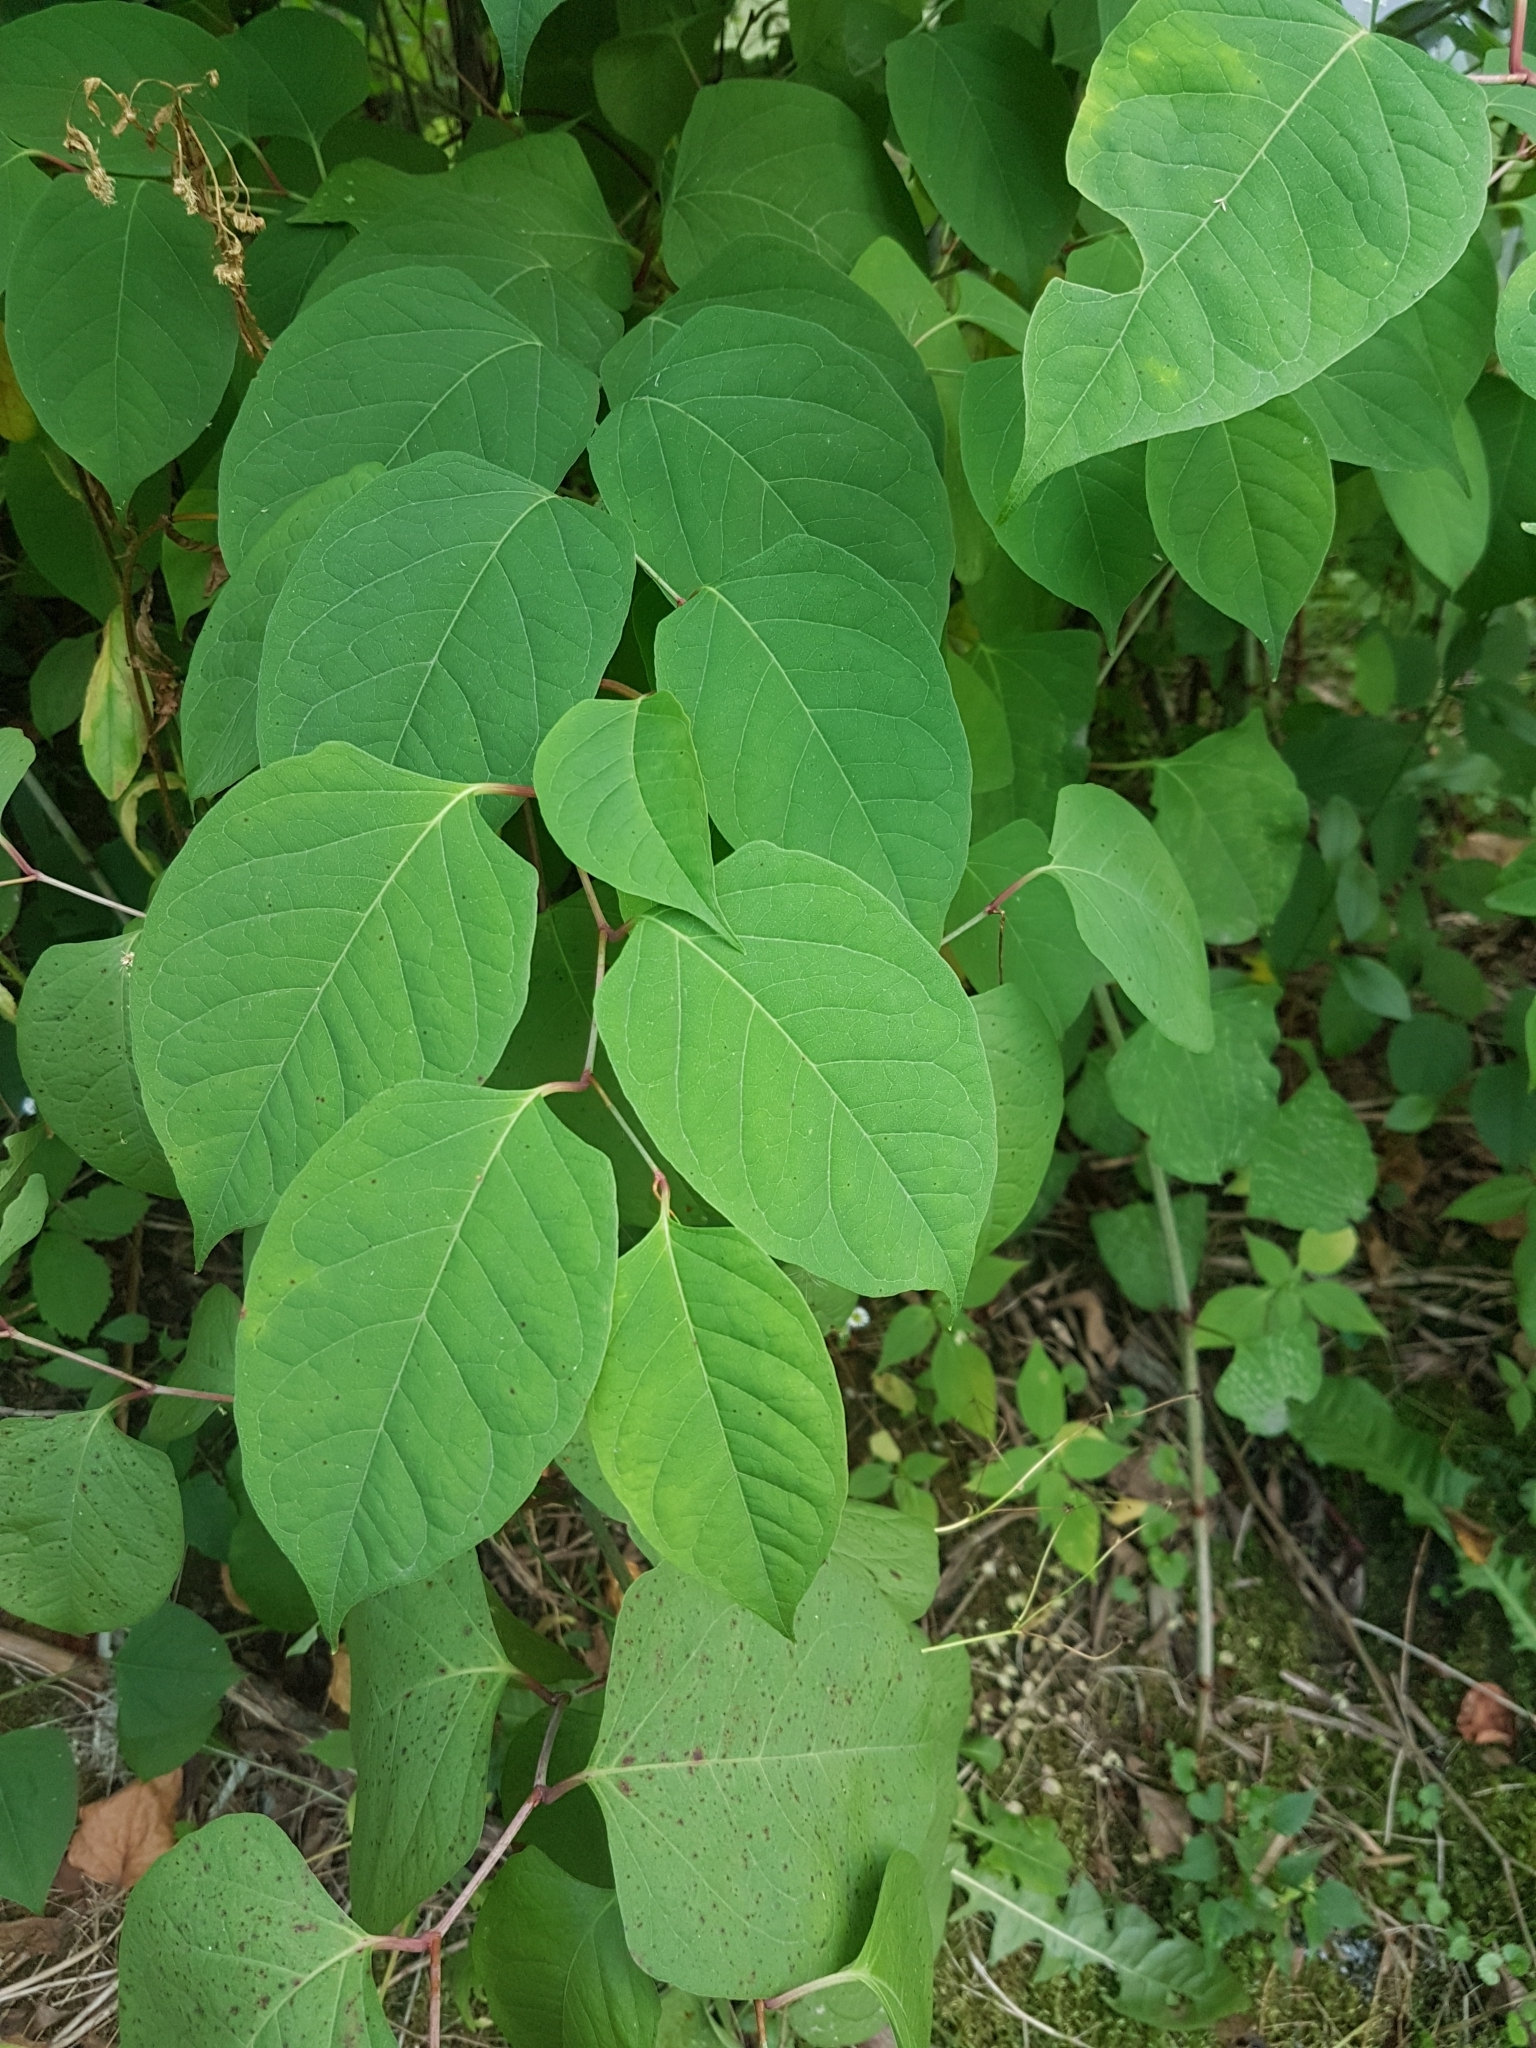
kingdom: Plantae
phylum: Tracheophyta
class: Magnoliopsida
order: Caryophyllales
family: Polygonaceae
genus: Reynoutria
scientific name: Reynoutria japonica
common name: Japanese knotweed
